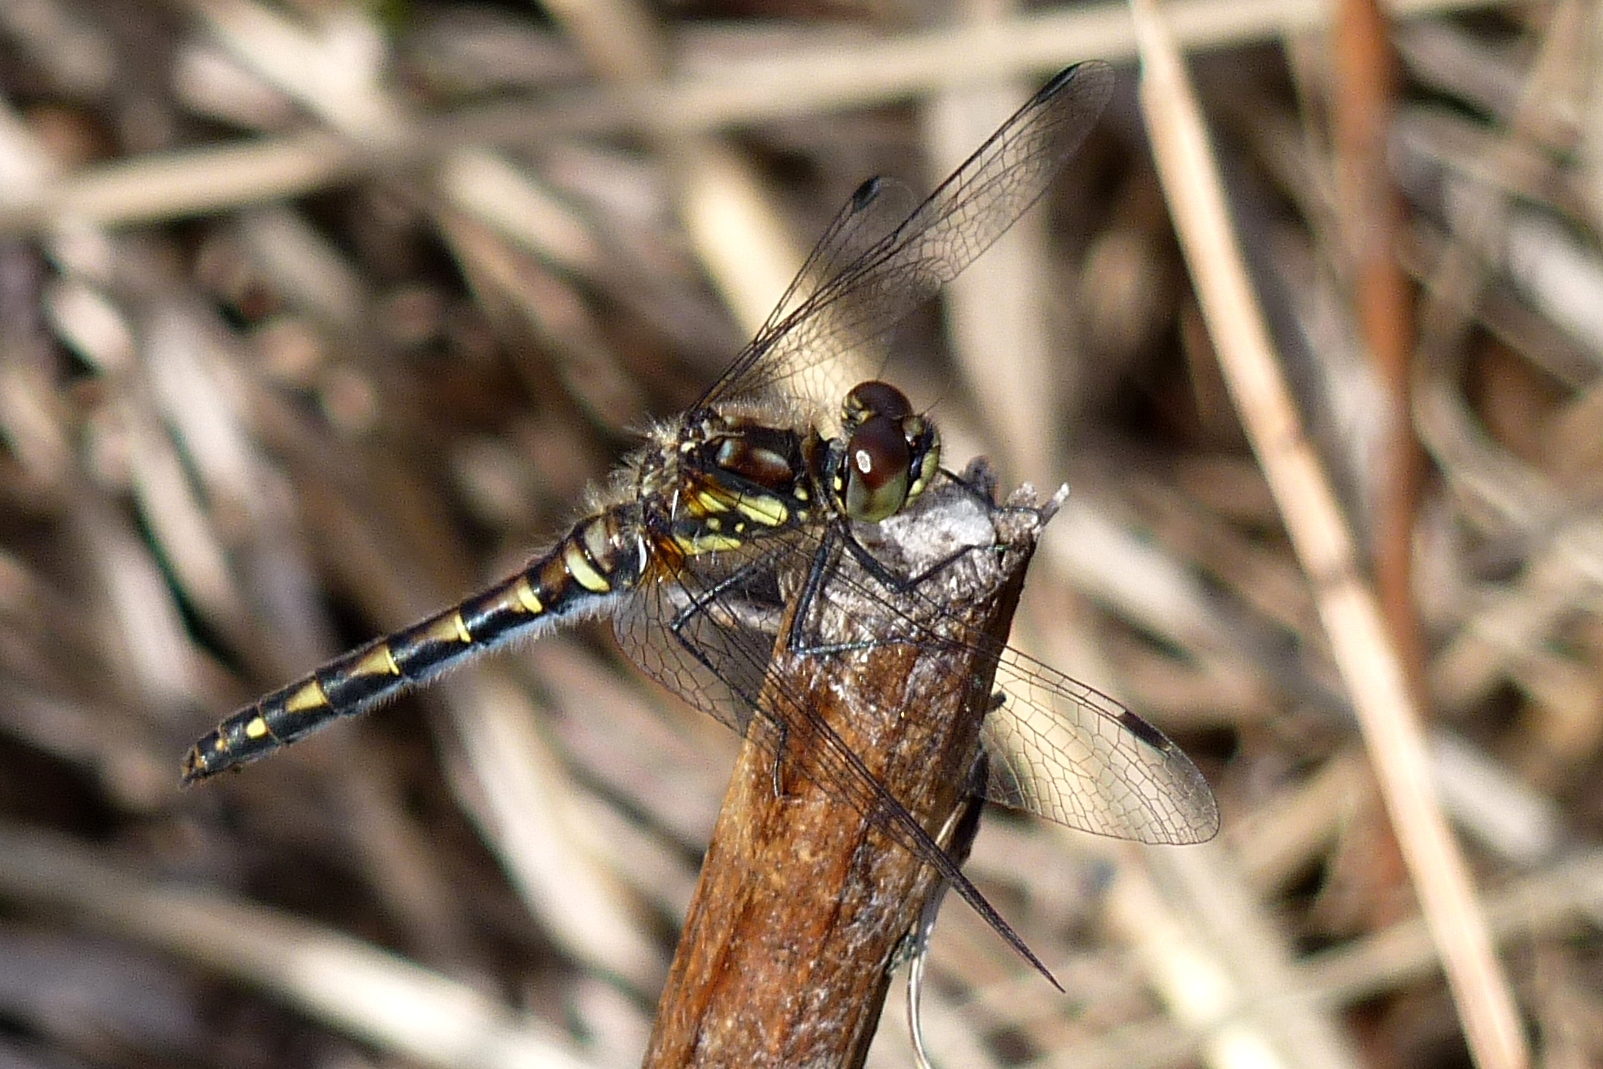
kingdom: Animalia
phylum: Arthropoda
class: Insecta
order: Odonata
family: Libellulidae
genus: Sympetrum
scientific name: Sympetrum danae
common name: Black darter
